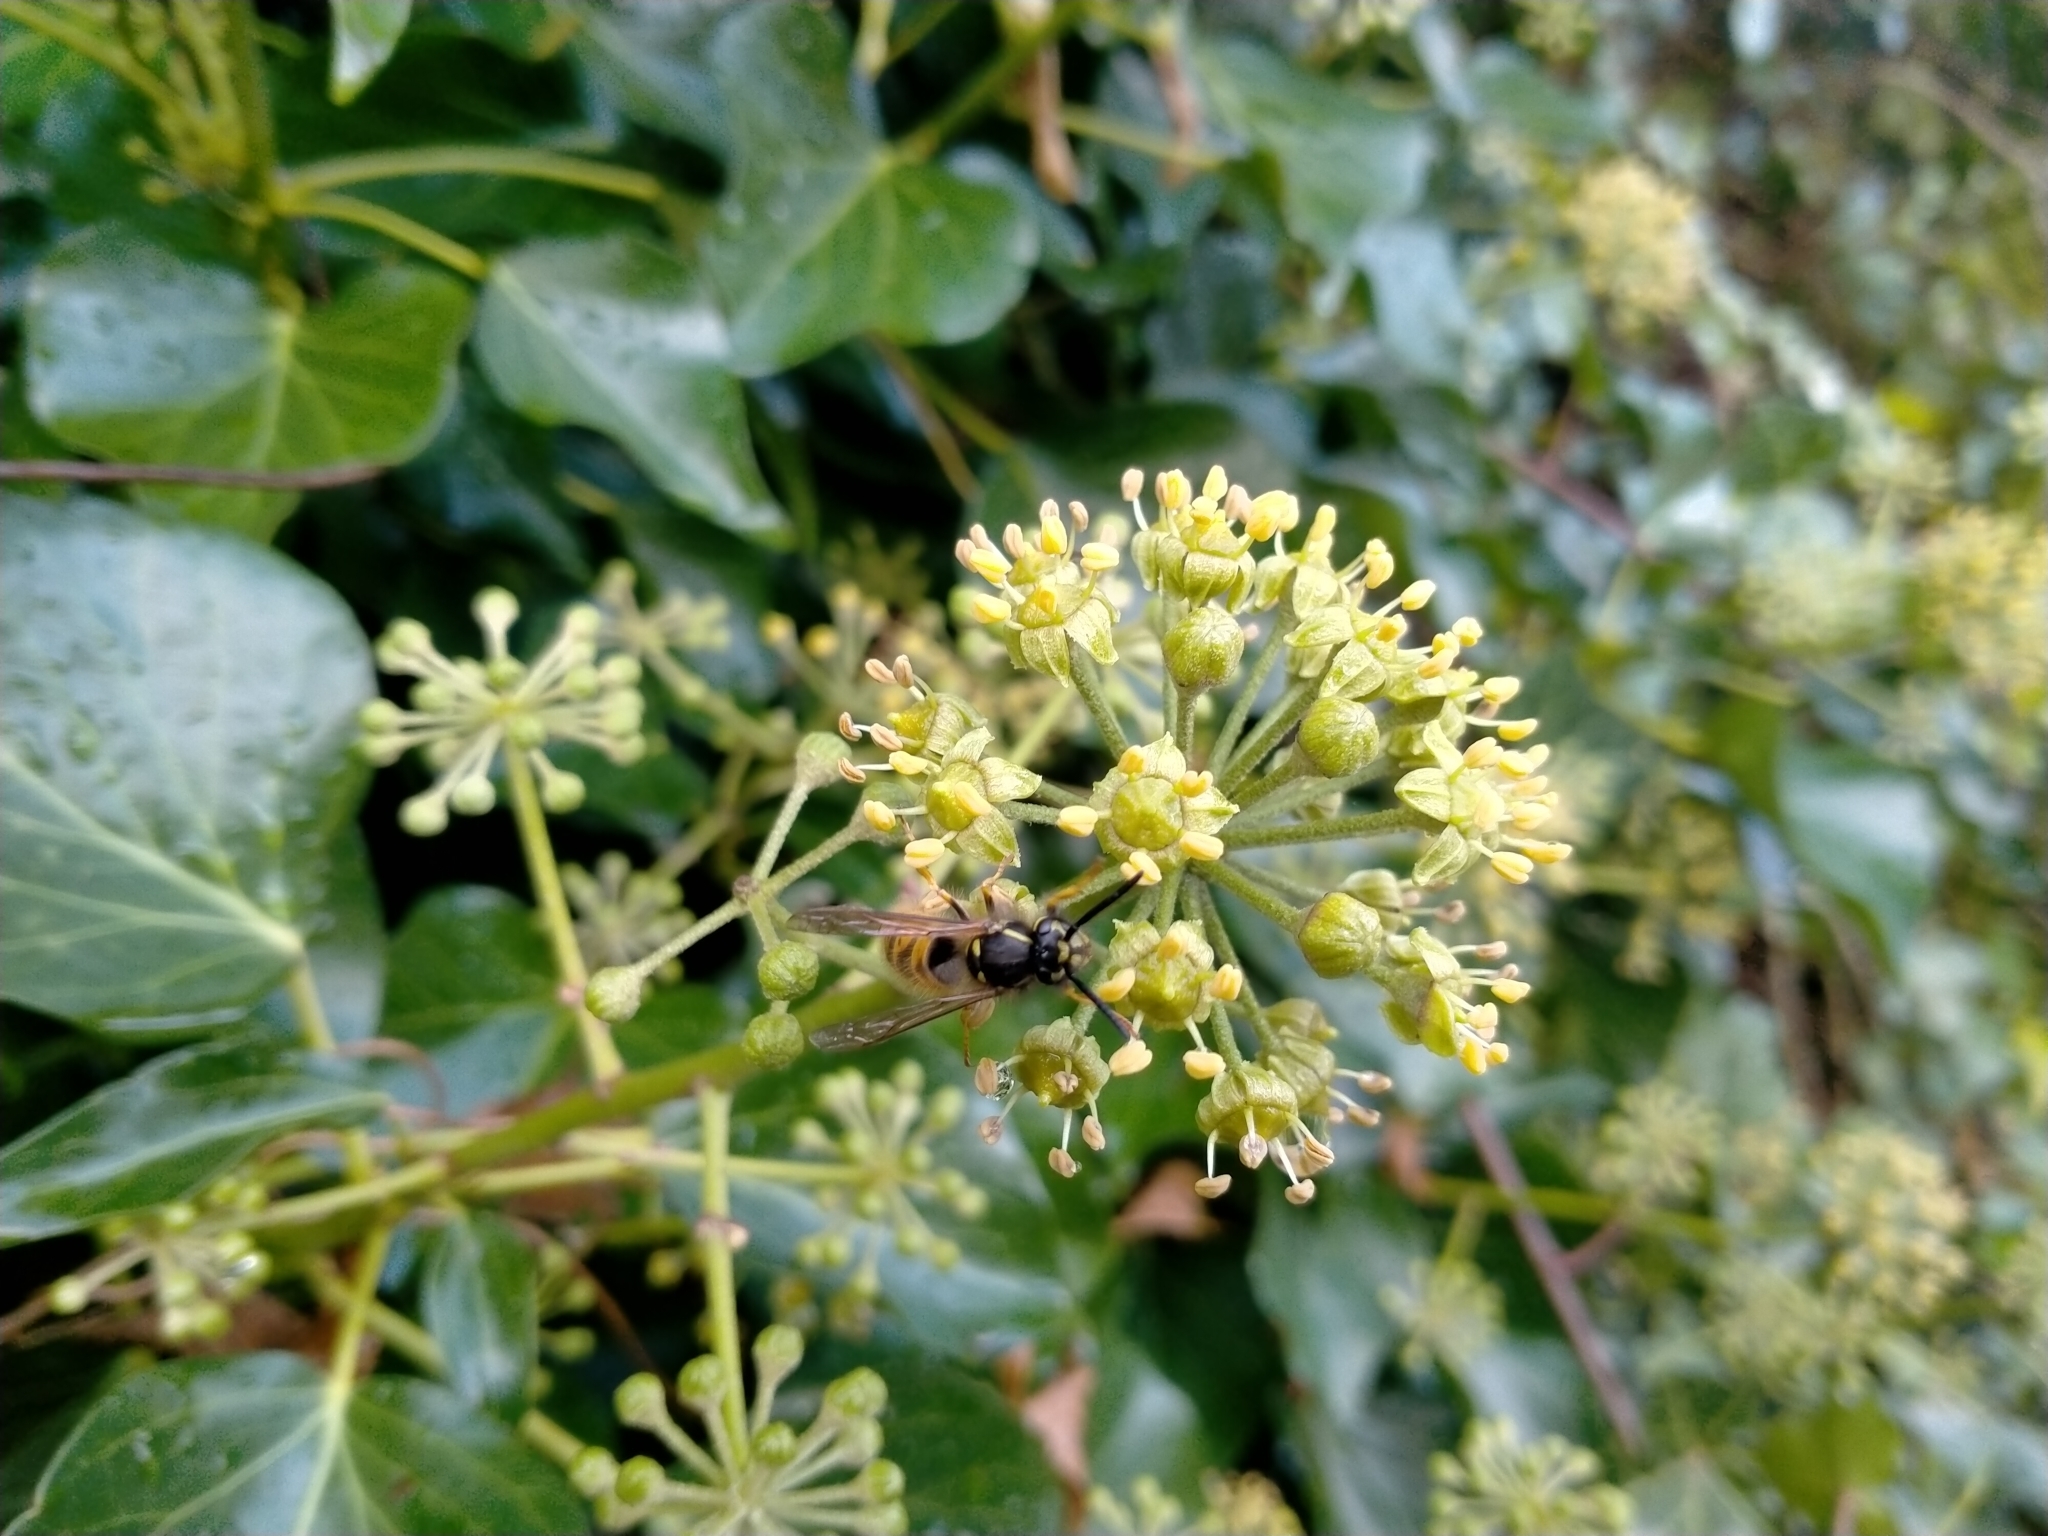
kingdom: Plantae
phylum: Tracheophyta
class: Magnoliopsida
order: Apiales
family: Araliaceae
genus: Hedera
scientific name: Hedera helix
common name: Ivy
